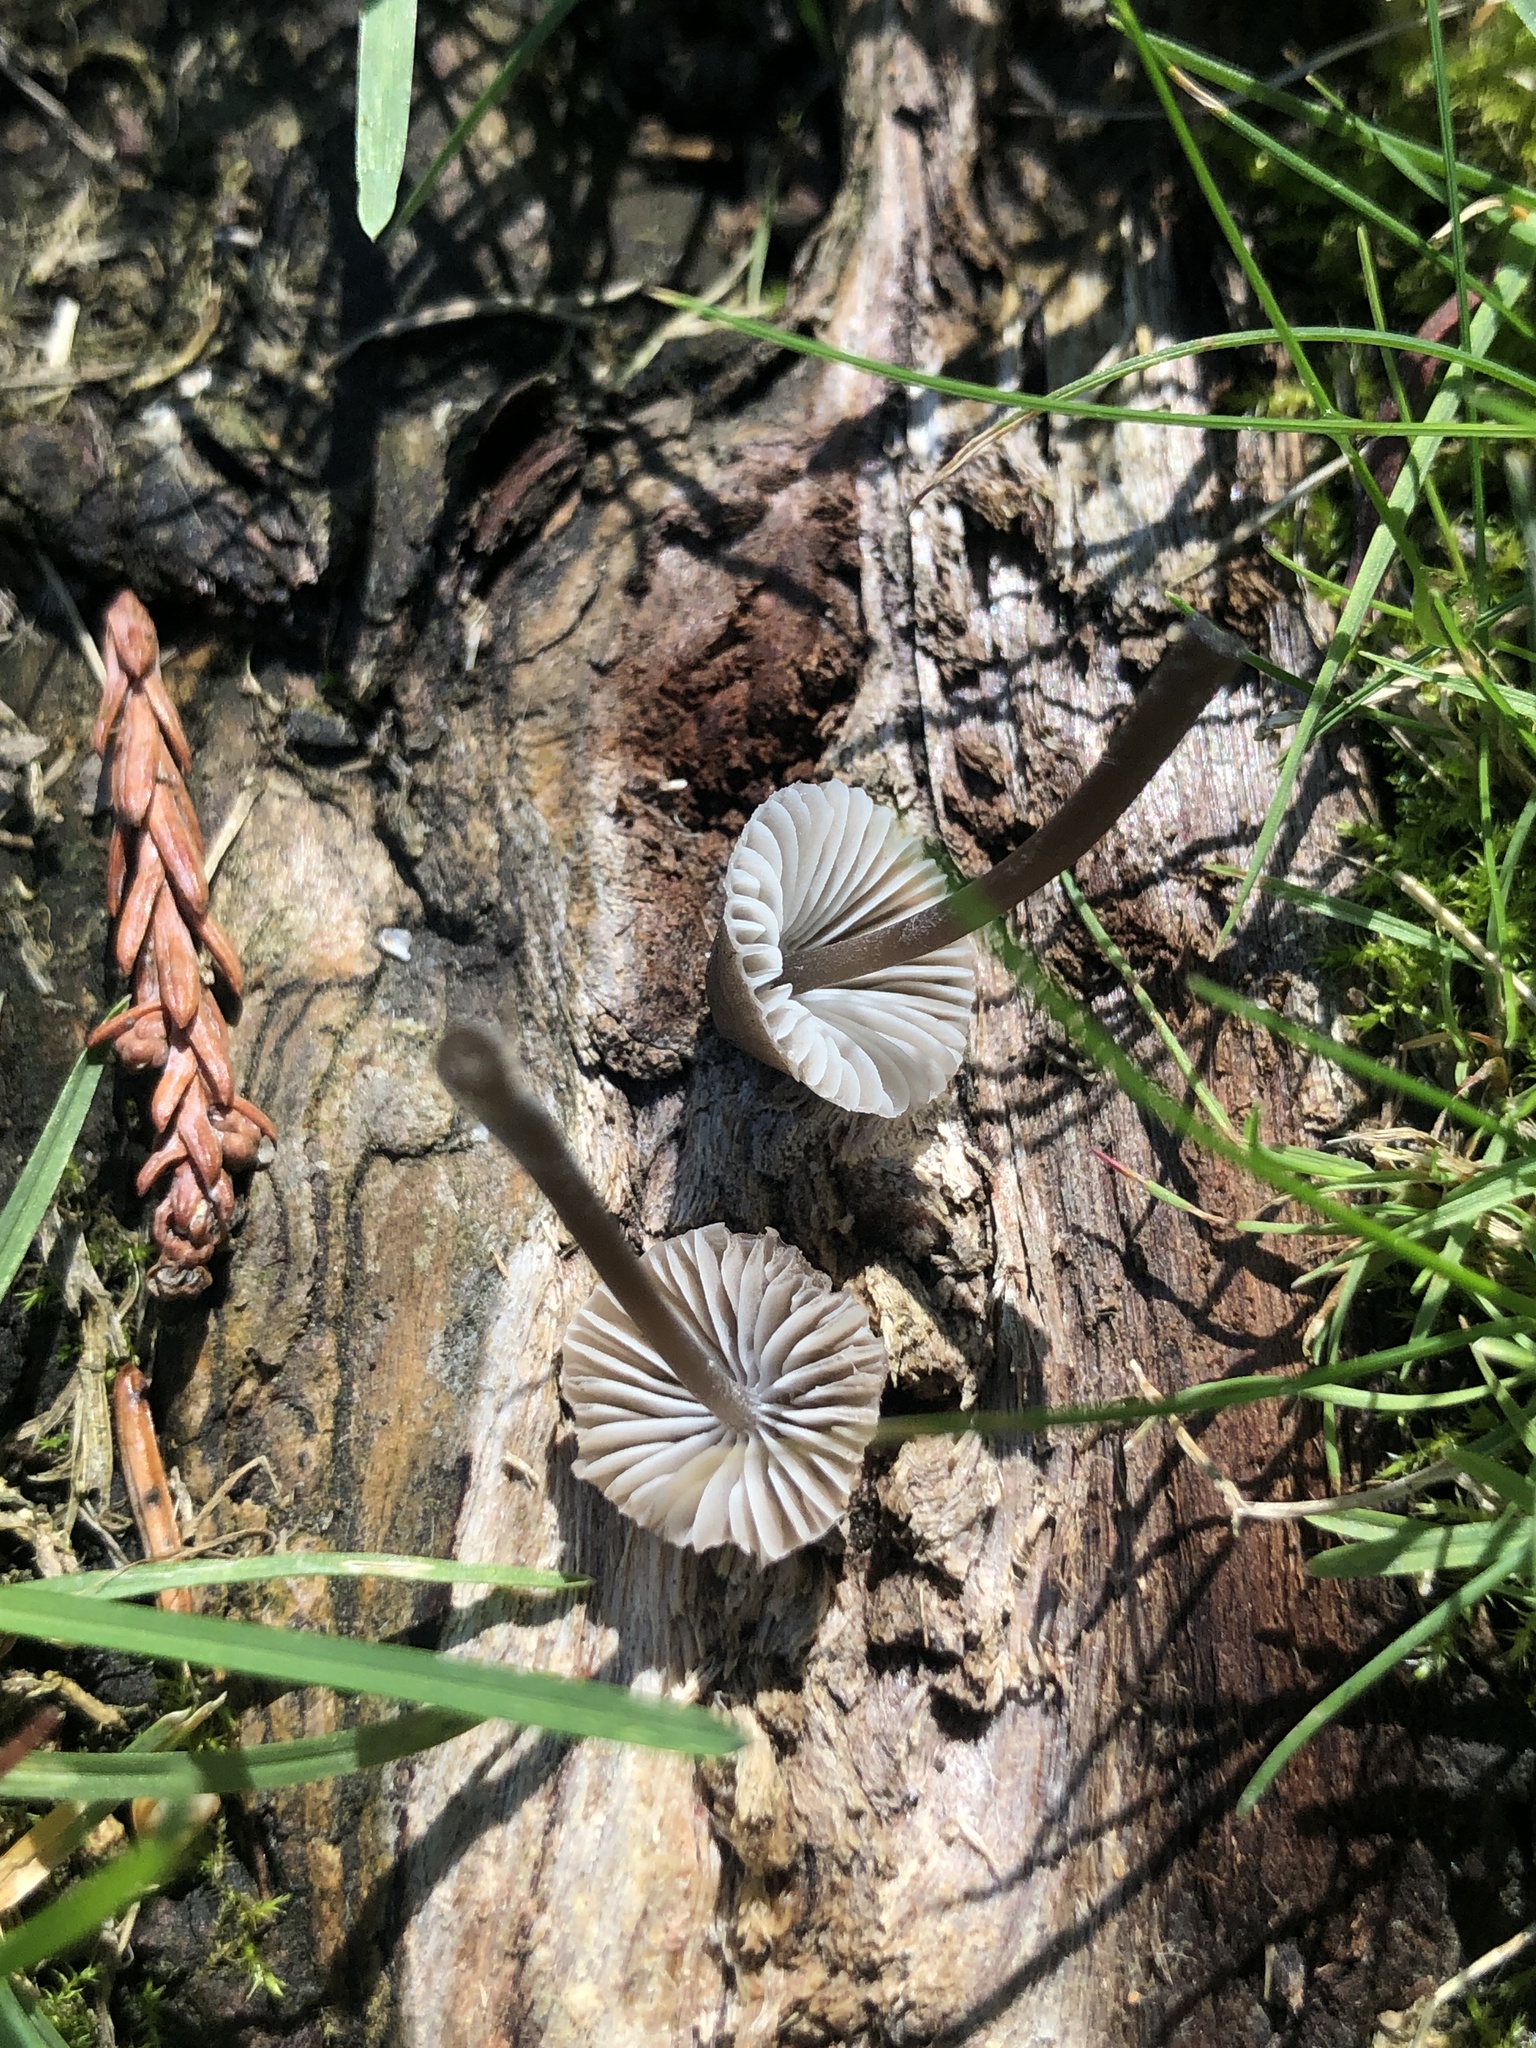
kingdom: Fungi
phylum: Basidiomycota
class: Agaricomycetes
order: Agaricales
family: Mycenaceae
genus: Mycena
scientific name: Mycena leptocephala
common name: Nitrous bonnet
